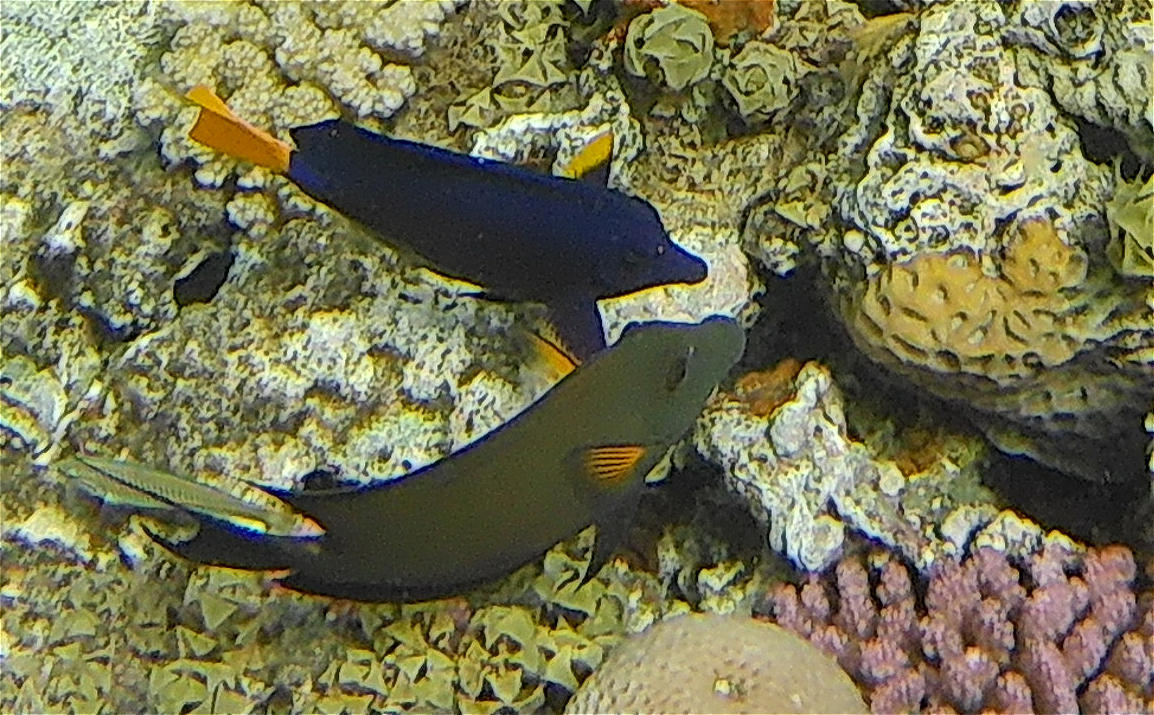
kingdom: Animalia
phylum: Chordata
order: Perciformes
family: Acanthuridae
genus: Zebrasoma
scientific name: Zebrasoma xanthurum
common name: Purple tang
